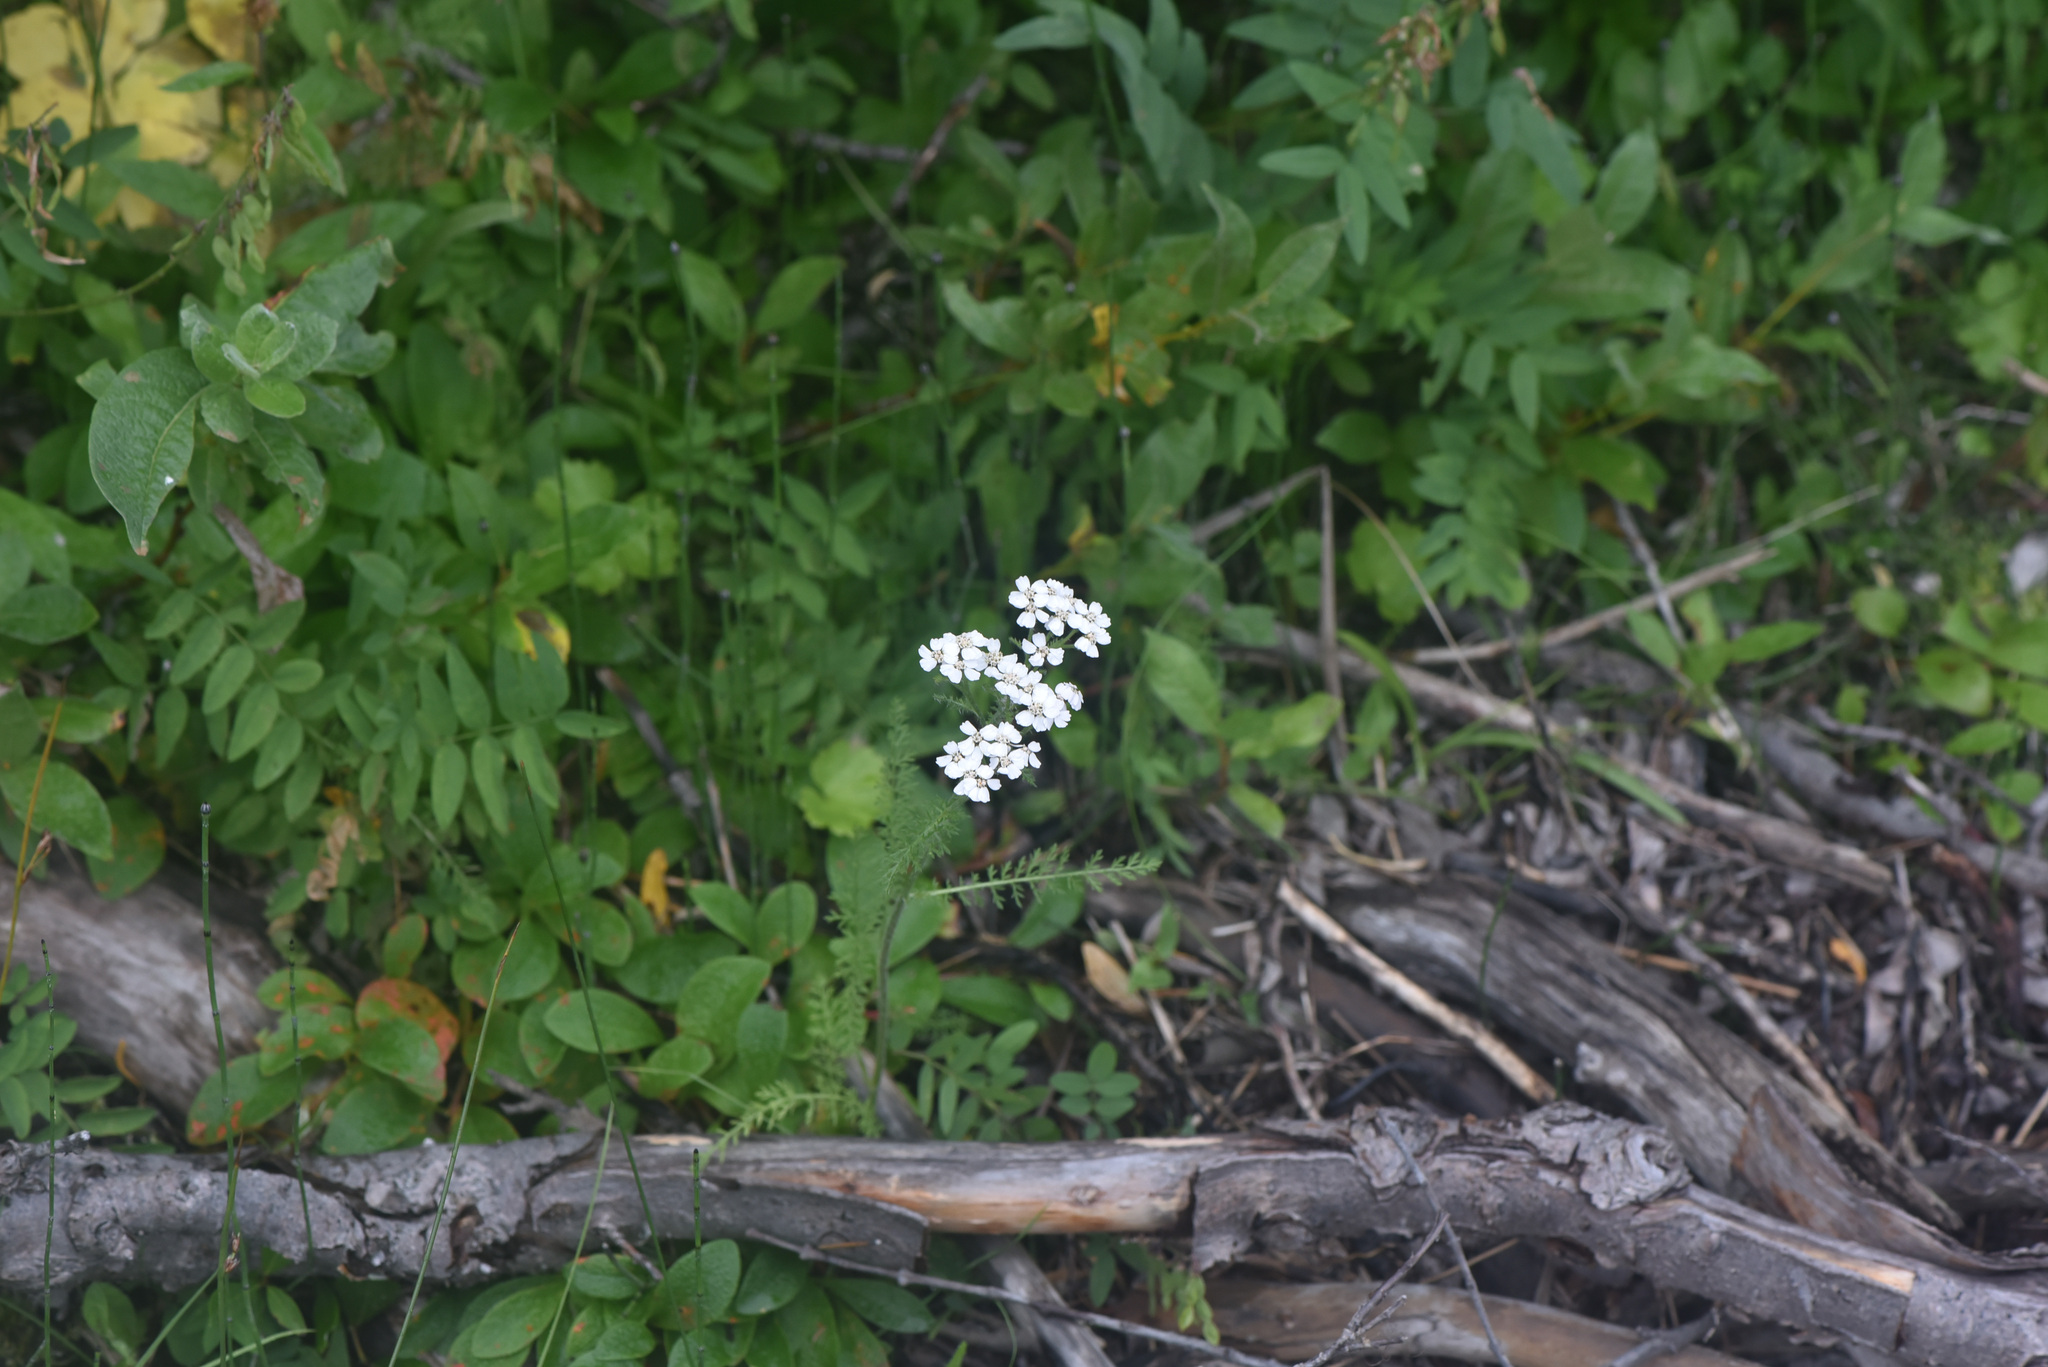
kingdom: Plantae
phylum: Tracheophyta
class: Magnoliopsida
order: Asterales
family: Asteraceae
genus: Achillea
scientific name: Achillea millefolium
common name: Yarrow
